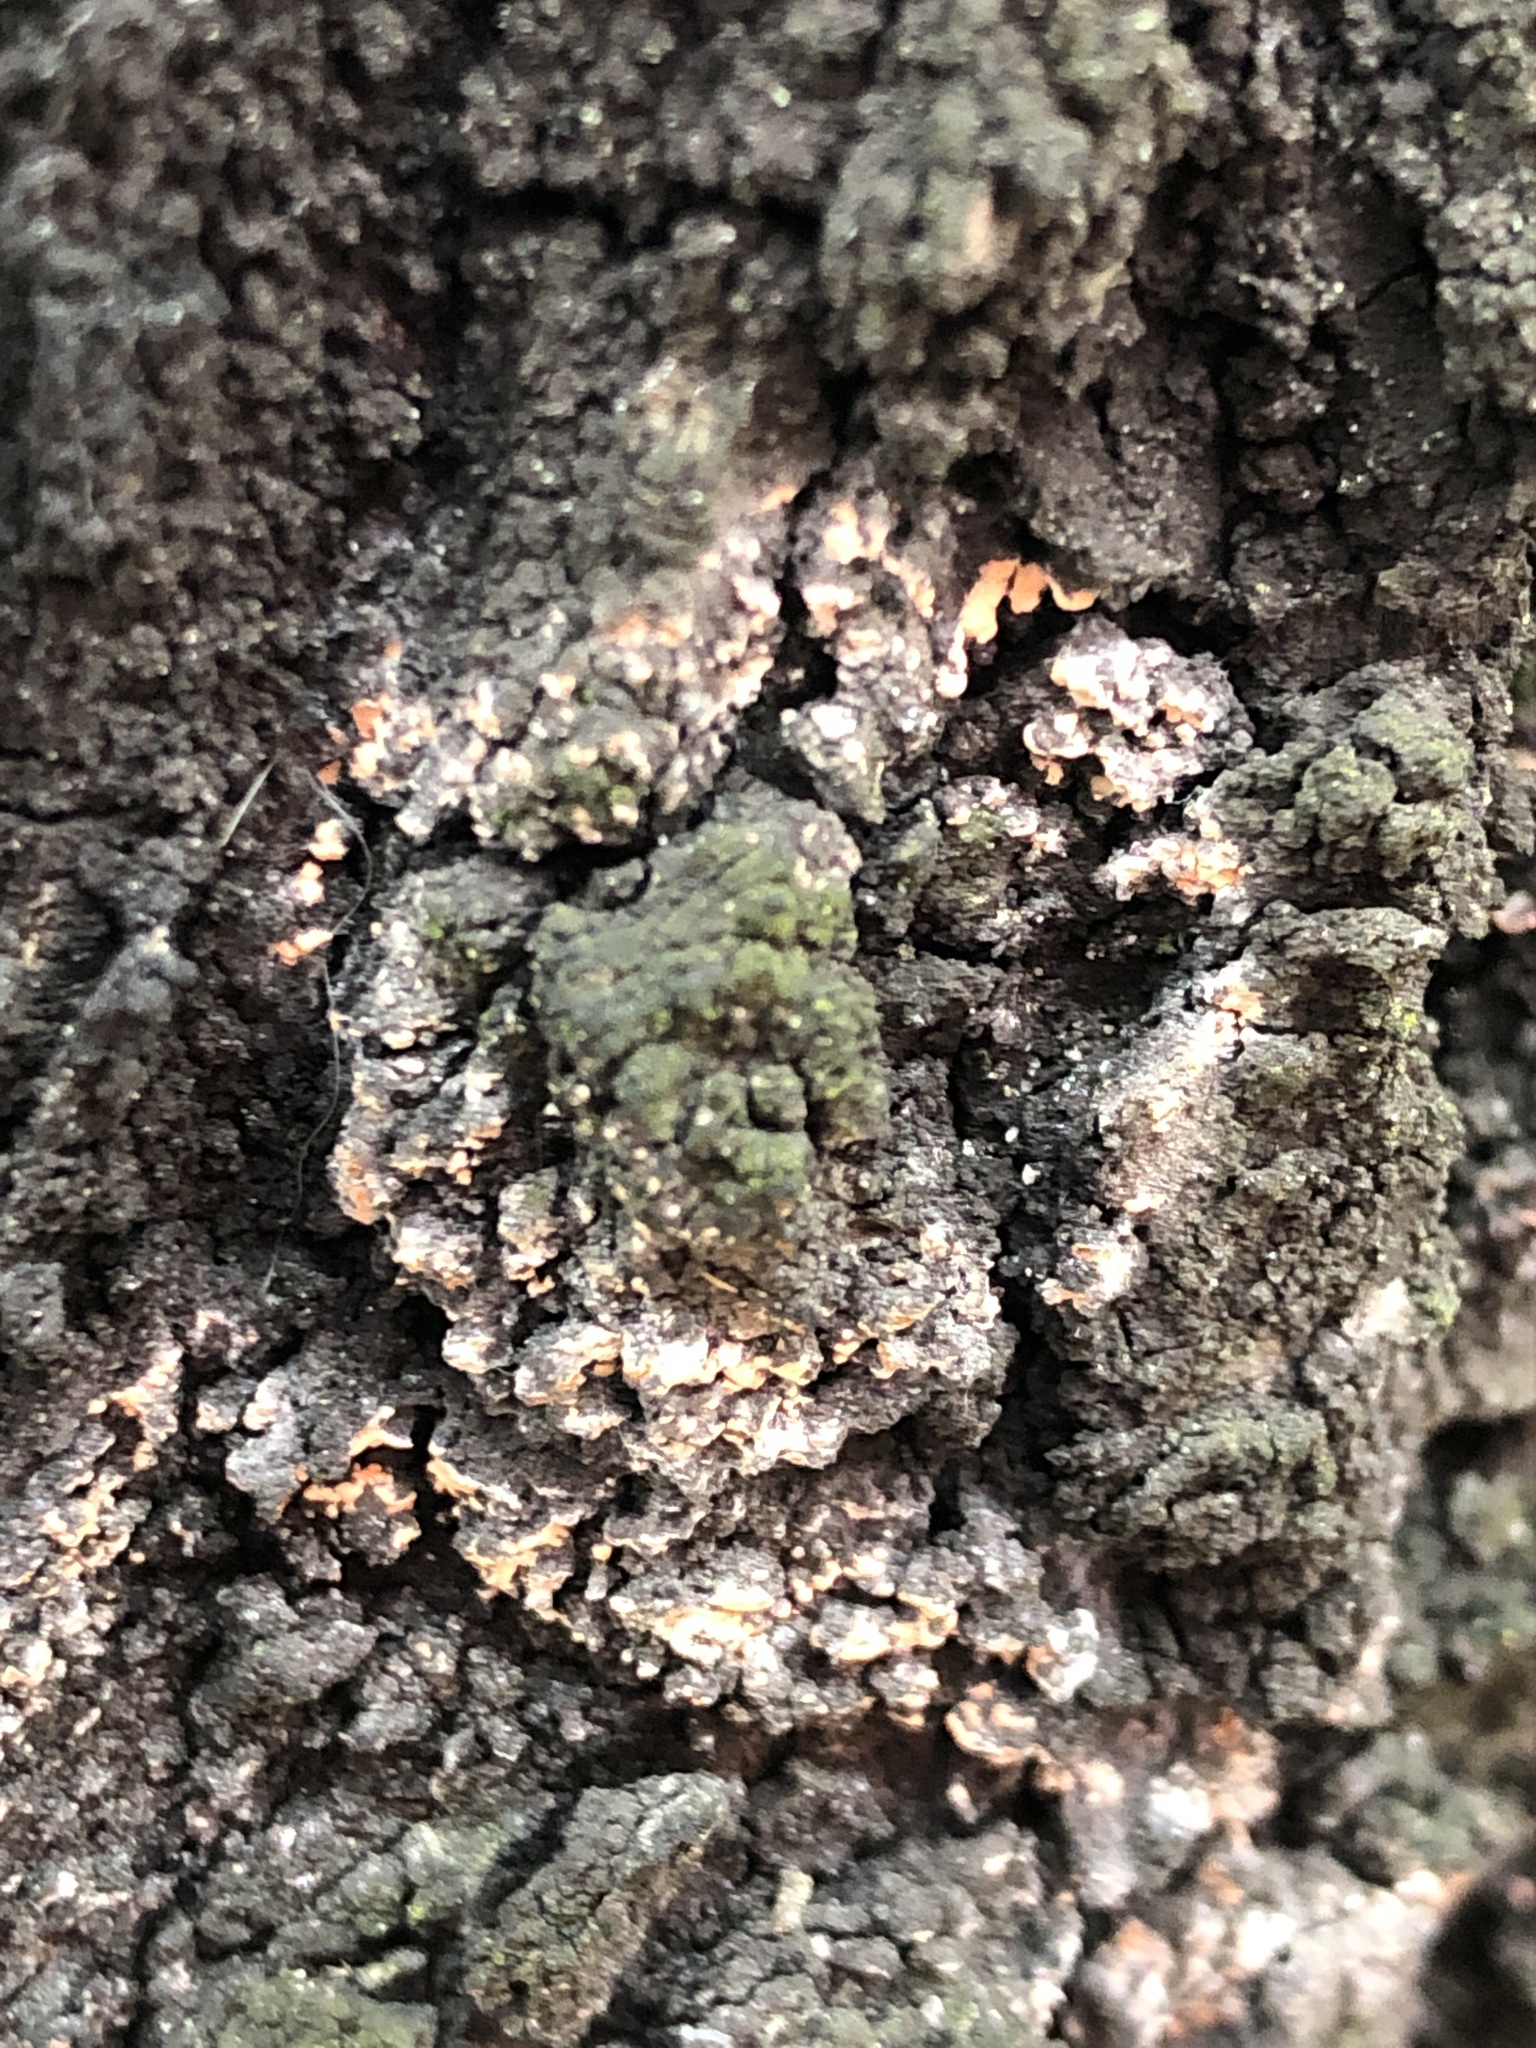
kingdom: Fungi
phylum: Basidiomycota
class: Agaricomycetes
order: Atheliales
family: Atheliaceae
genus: Athelia
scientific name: Athelia arachnoidea
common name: Candelabra duster
